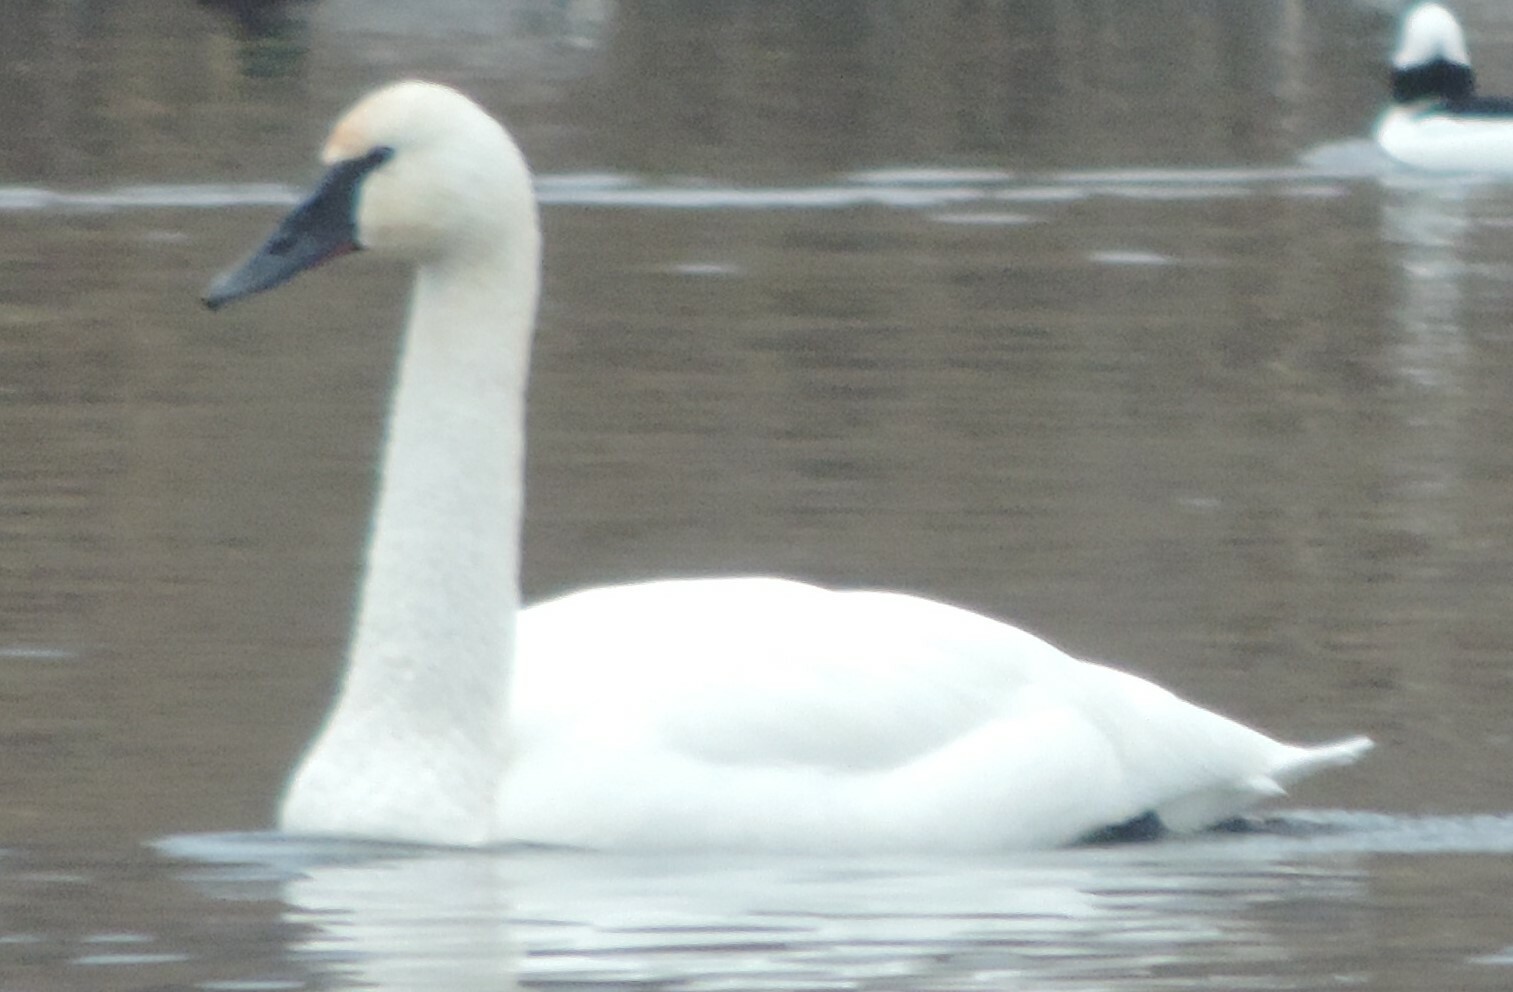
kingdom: Animalia
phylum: Chordata
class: Aves
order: Anseriformes
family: Anatidae
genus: Cygnus
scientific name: Cygnus buccinator
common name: Trumpeter swan
